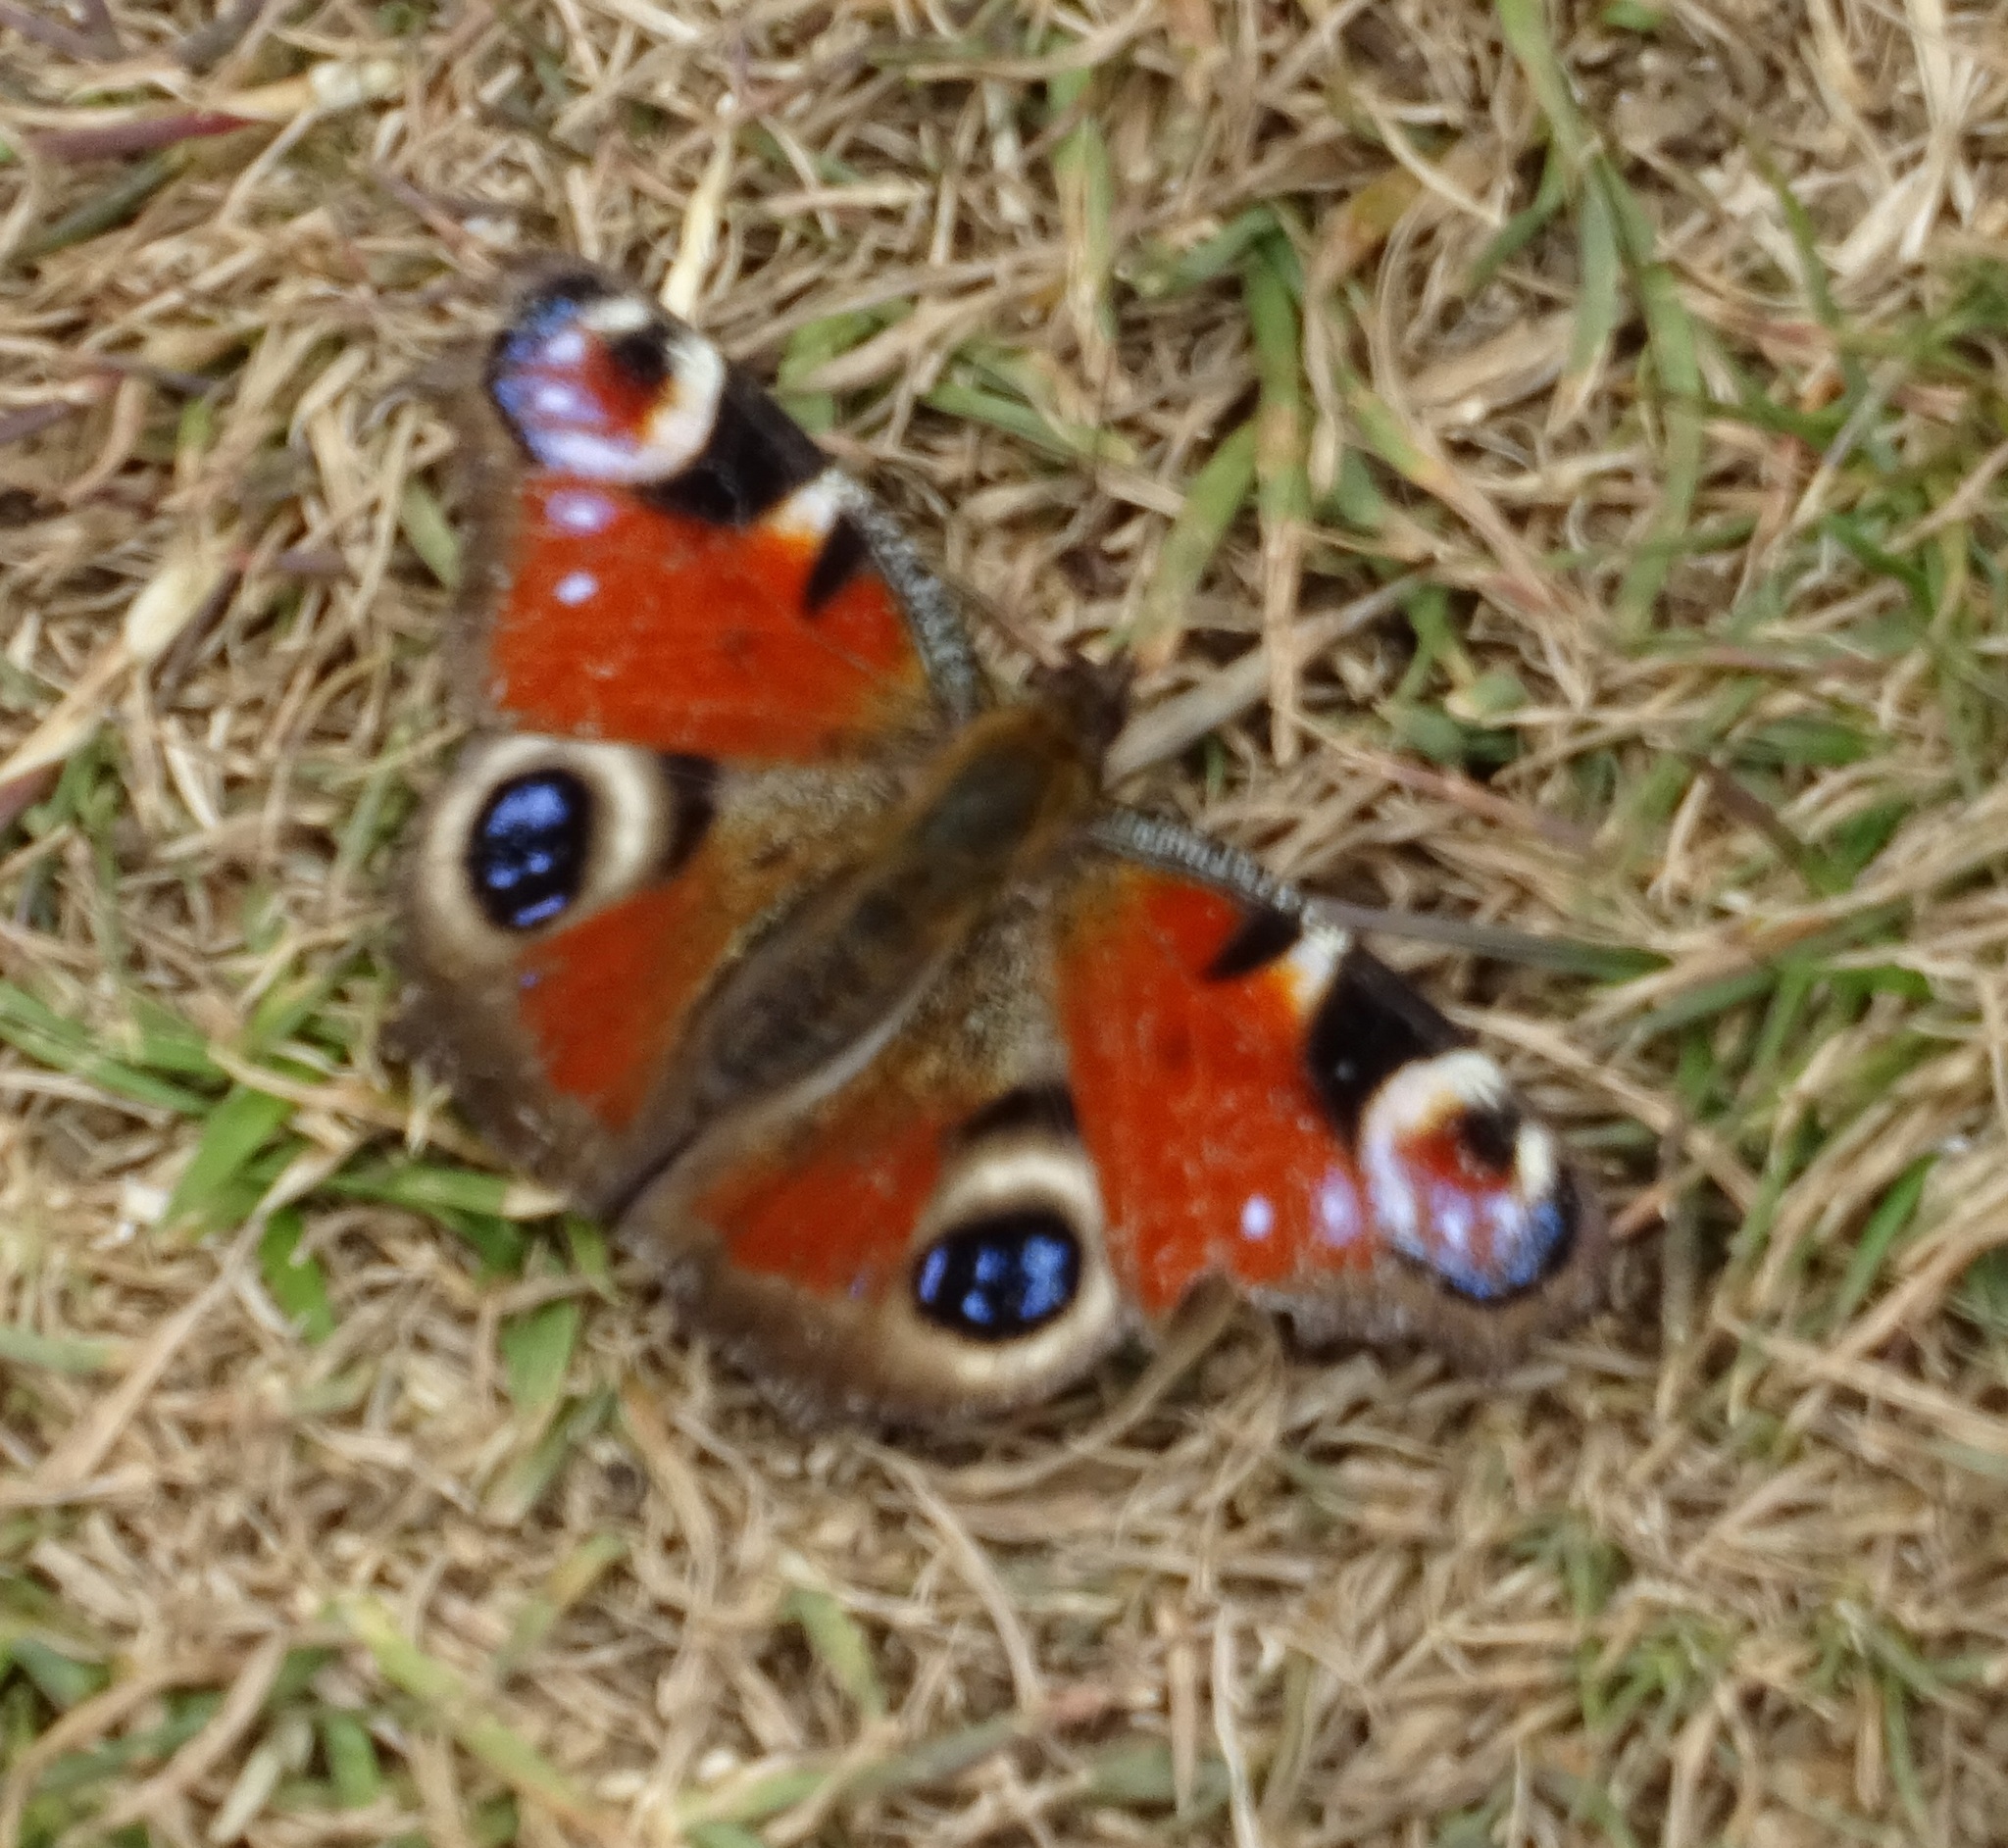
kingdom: Animalia
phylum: Arthropoda
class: Insecta
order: Lepidoptera
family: Nymphalidae
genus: Aglais
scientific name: Aglais io
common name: Peacock
